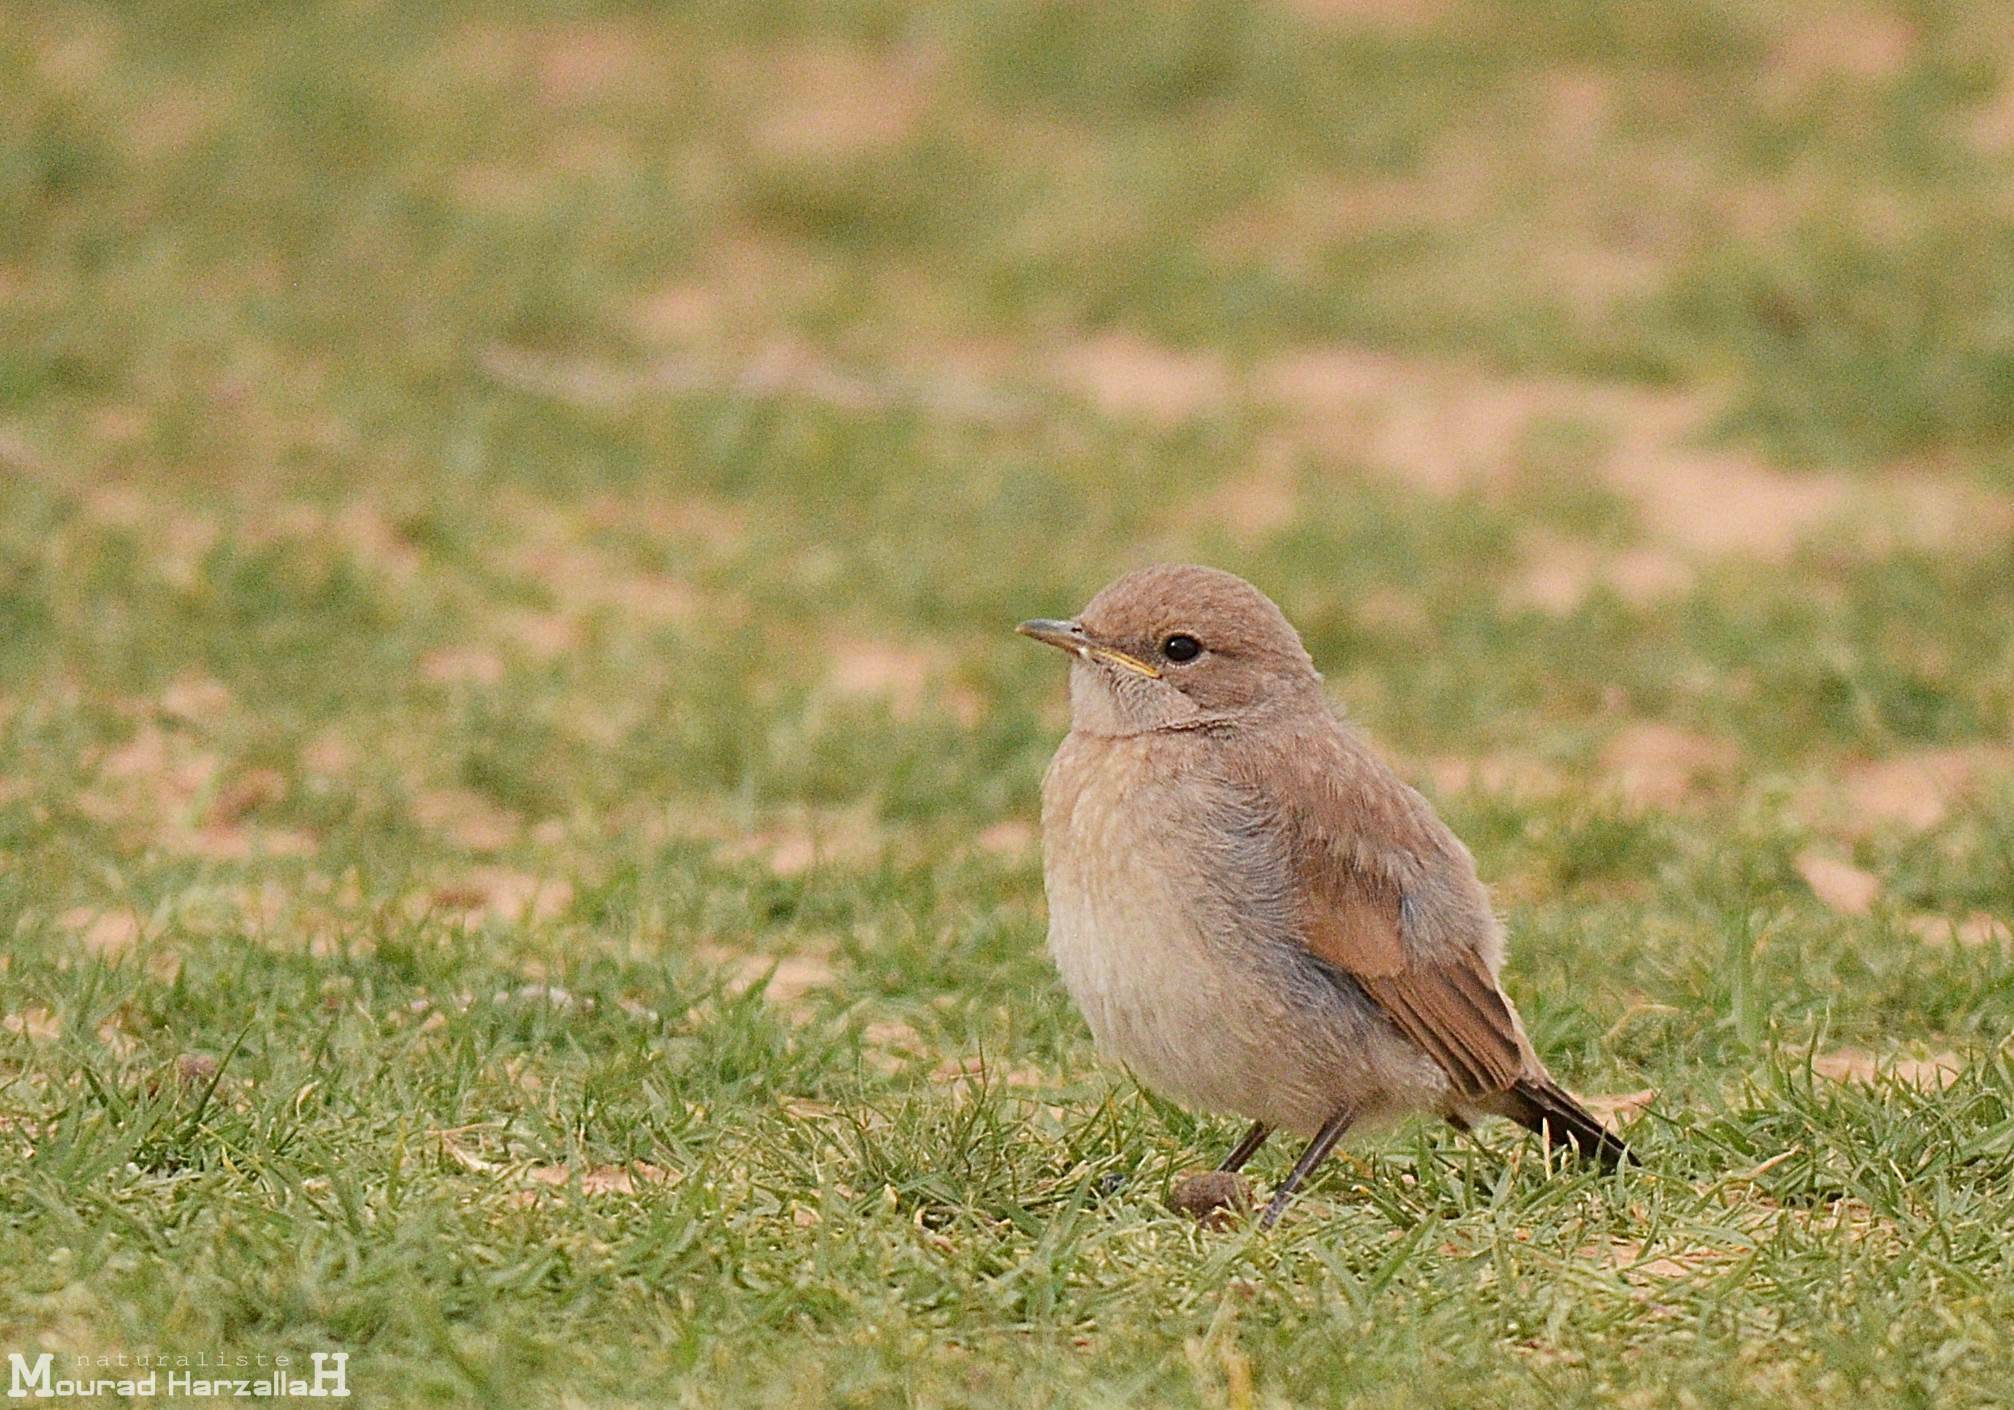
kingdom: Animalia
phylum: Chordata
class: Aves
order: Passeriformes
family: Muscicapidae
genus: Oenanthe
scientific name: Oenanthe moesta
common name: Red-rumped wheatear
